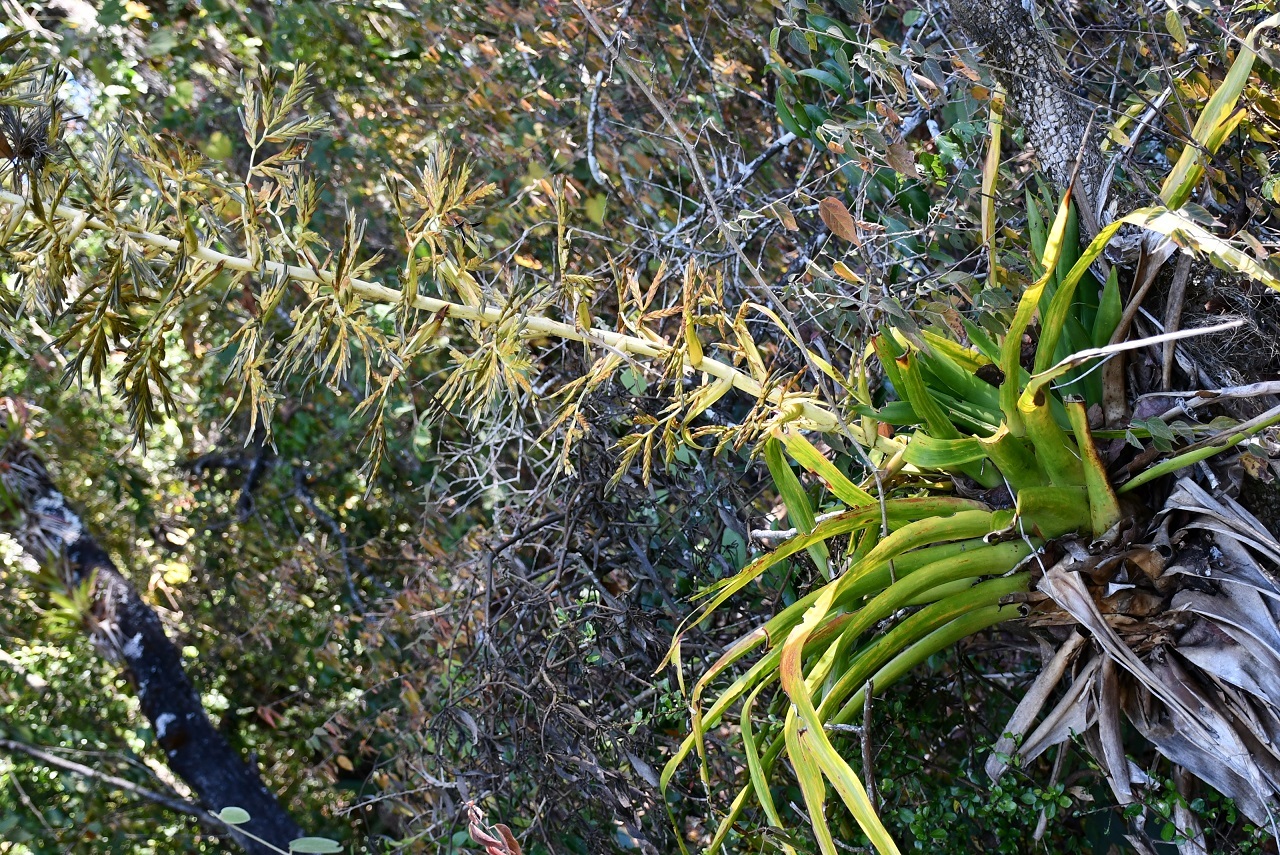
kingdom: Plantae
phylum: Tracheophyta
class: Liliopsida
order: Poales
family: Bromeliaceae
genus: Tillandsia
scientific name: Tillandsia excelsa
